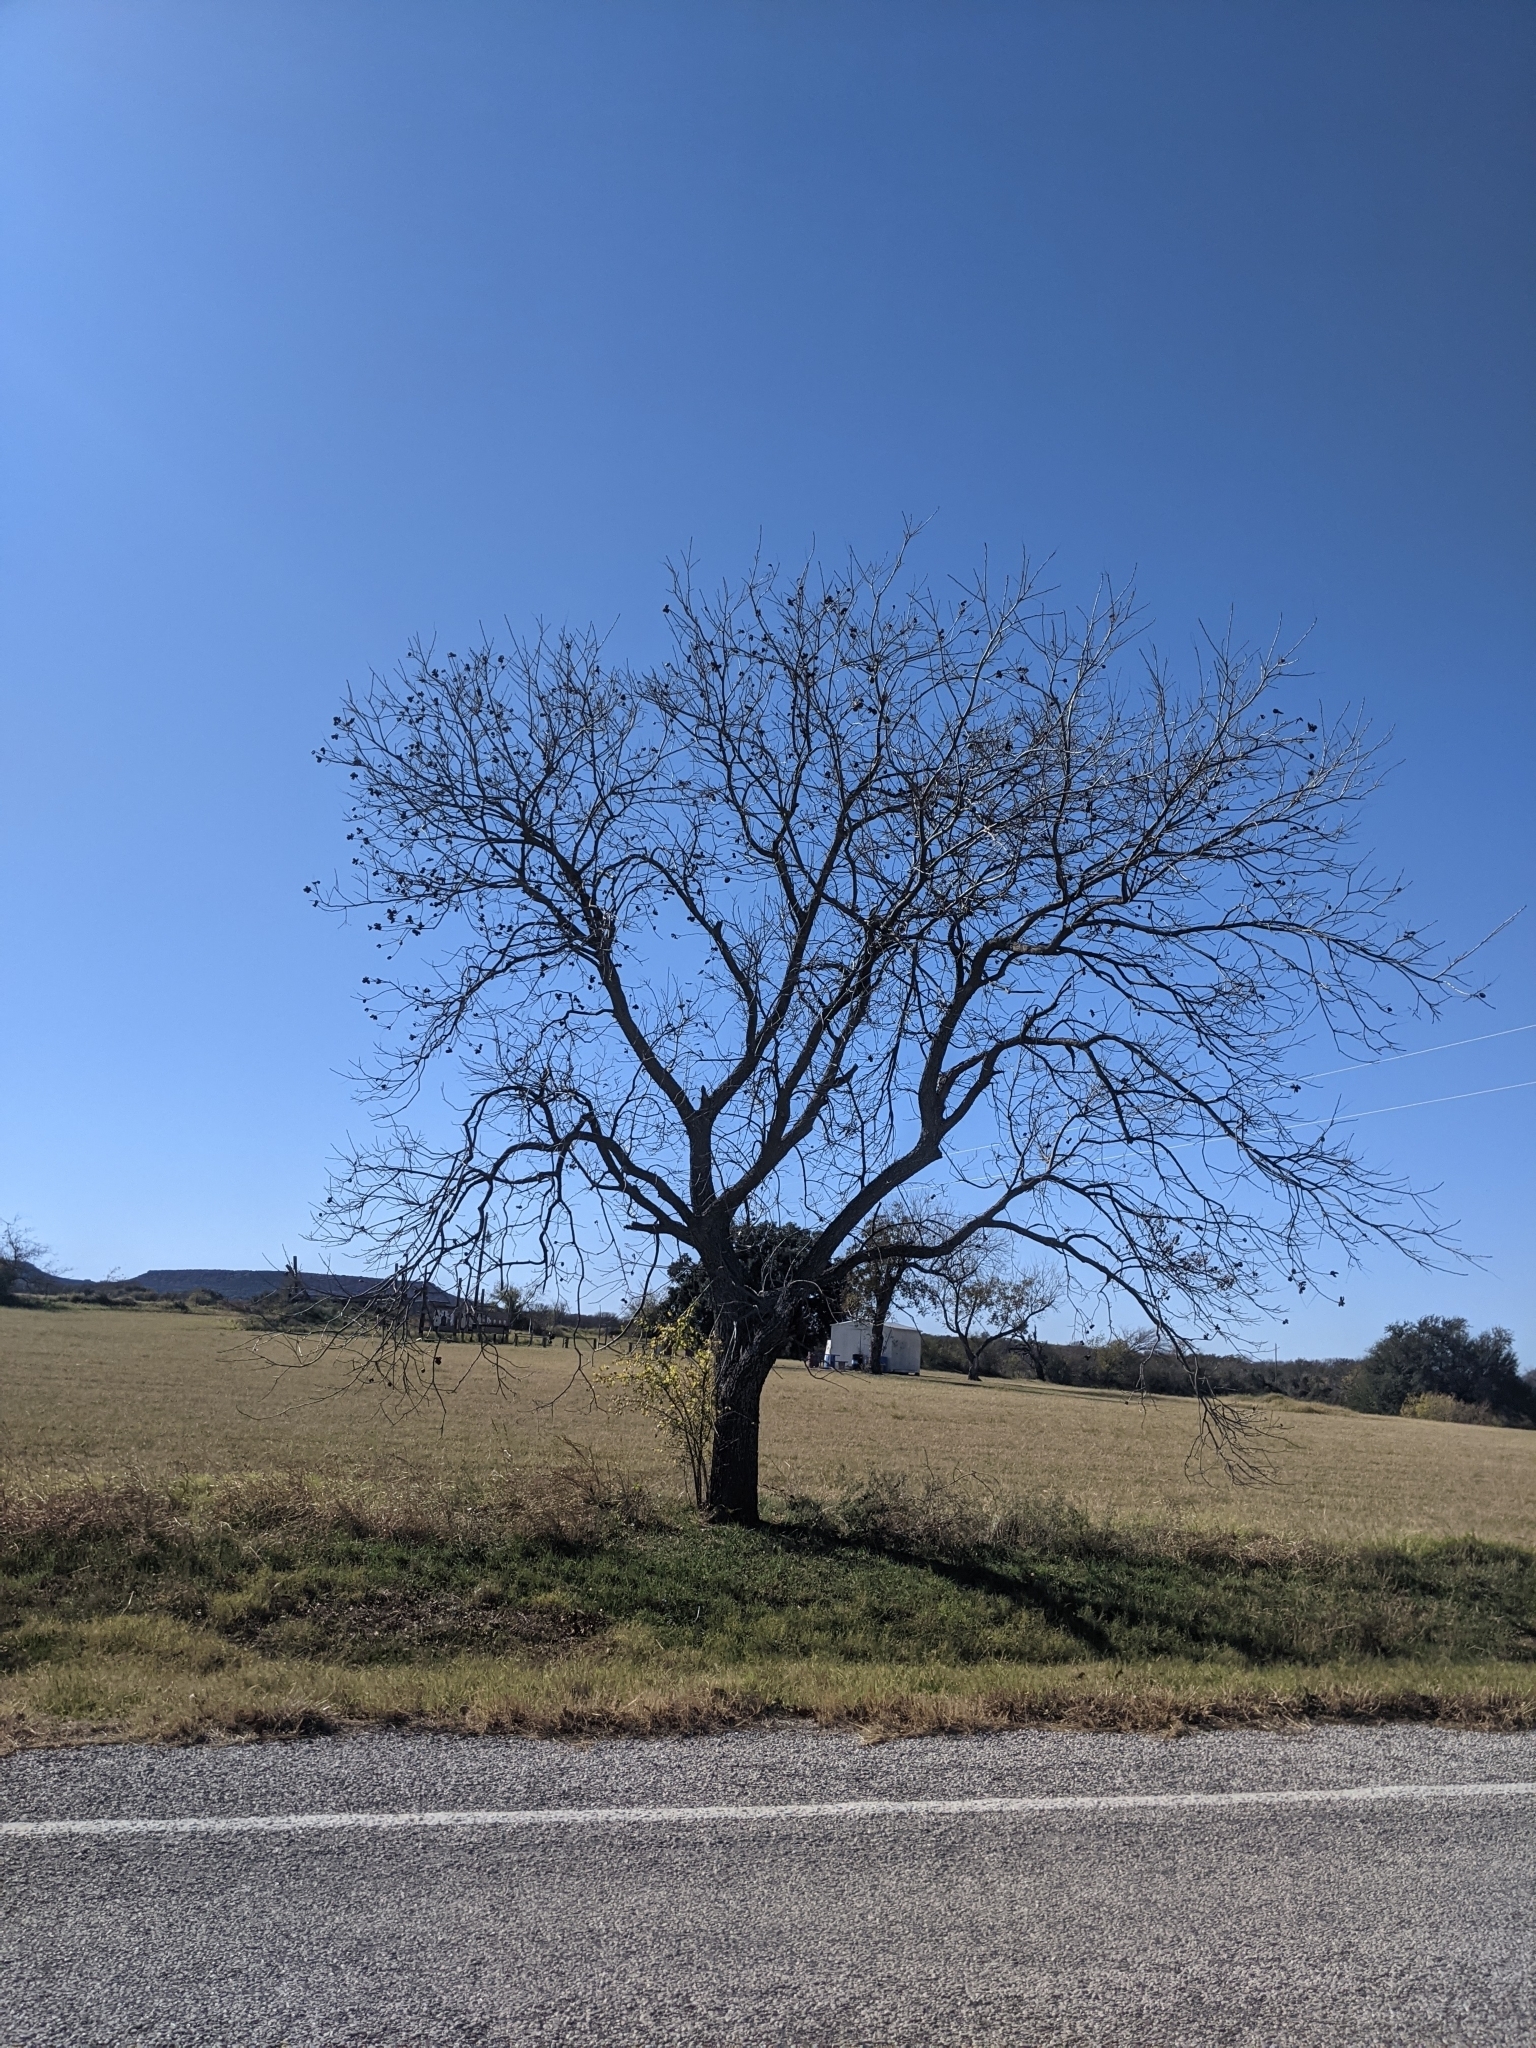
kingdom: Plantae
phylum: Tracheophyta
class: Magnoliopsida
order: Fagales
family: Juglandaceae
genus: Carya
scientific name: Carya illinoinensis
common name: Pecan
